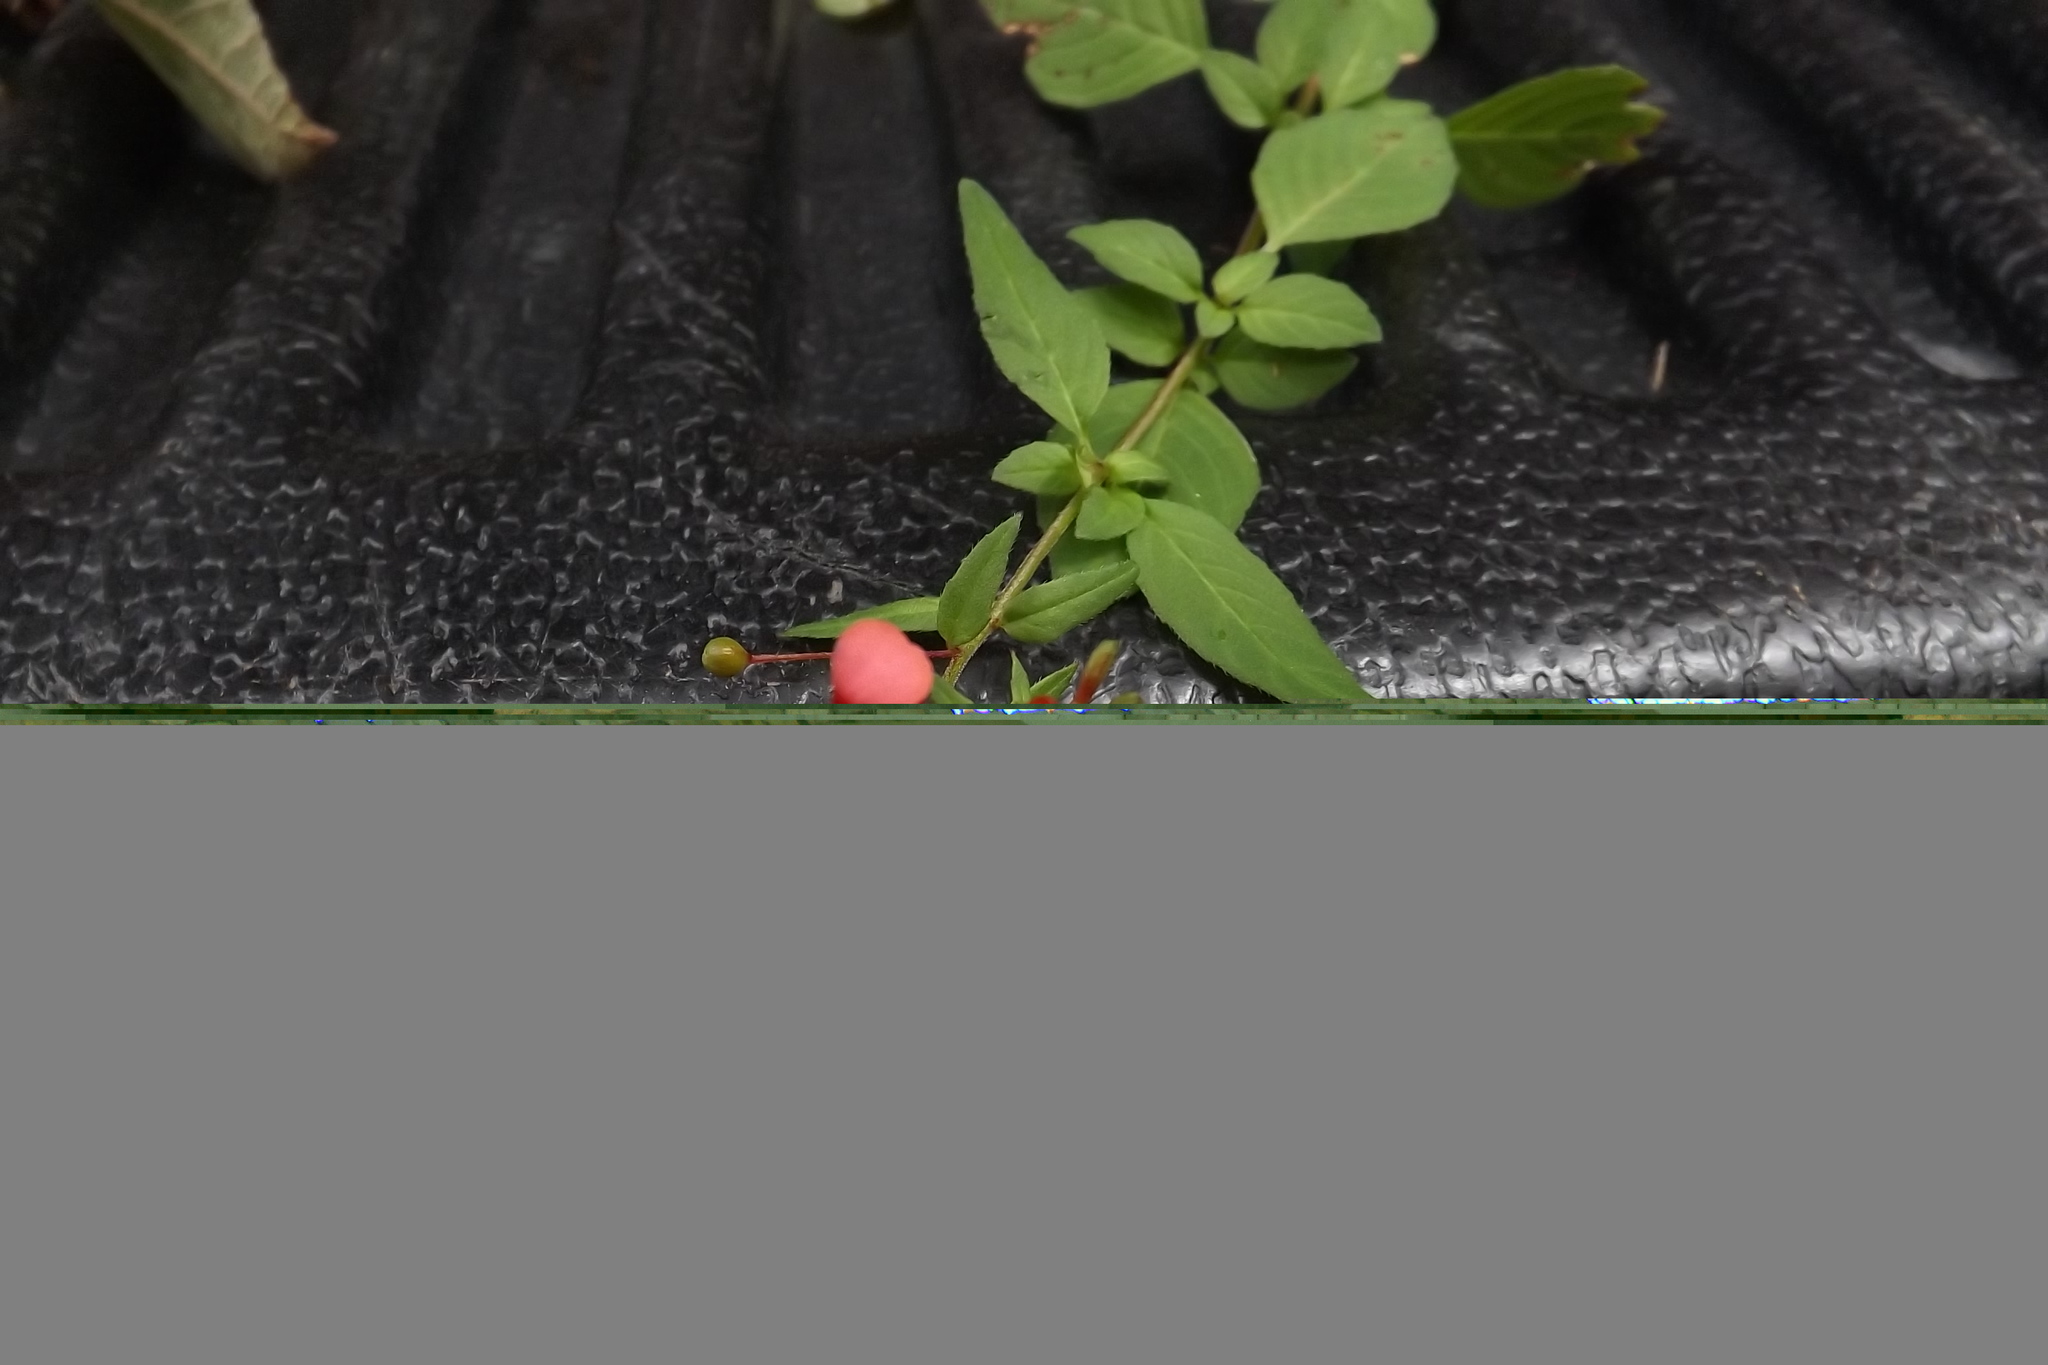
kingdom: Plantae
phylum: Tracheophyta
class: Magnoliopsida
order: Myrtales
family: Onagraceae
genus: Lopezia
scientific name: Lopezia racemosa
